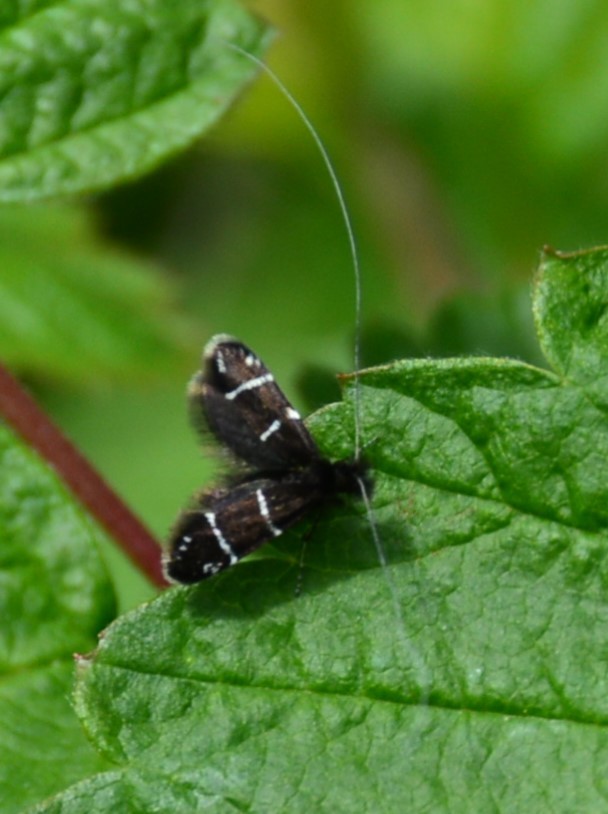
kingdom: Animalia
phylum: Arthropoda
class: Insecta
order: Lepidoptera
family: Adelidae
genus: Adela
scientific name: Adela septentrionella
